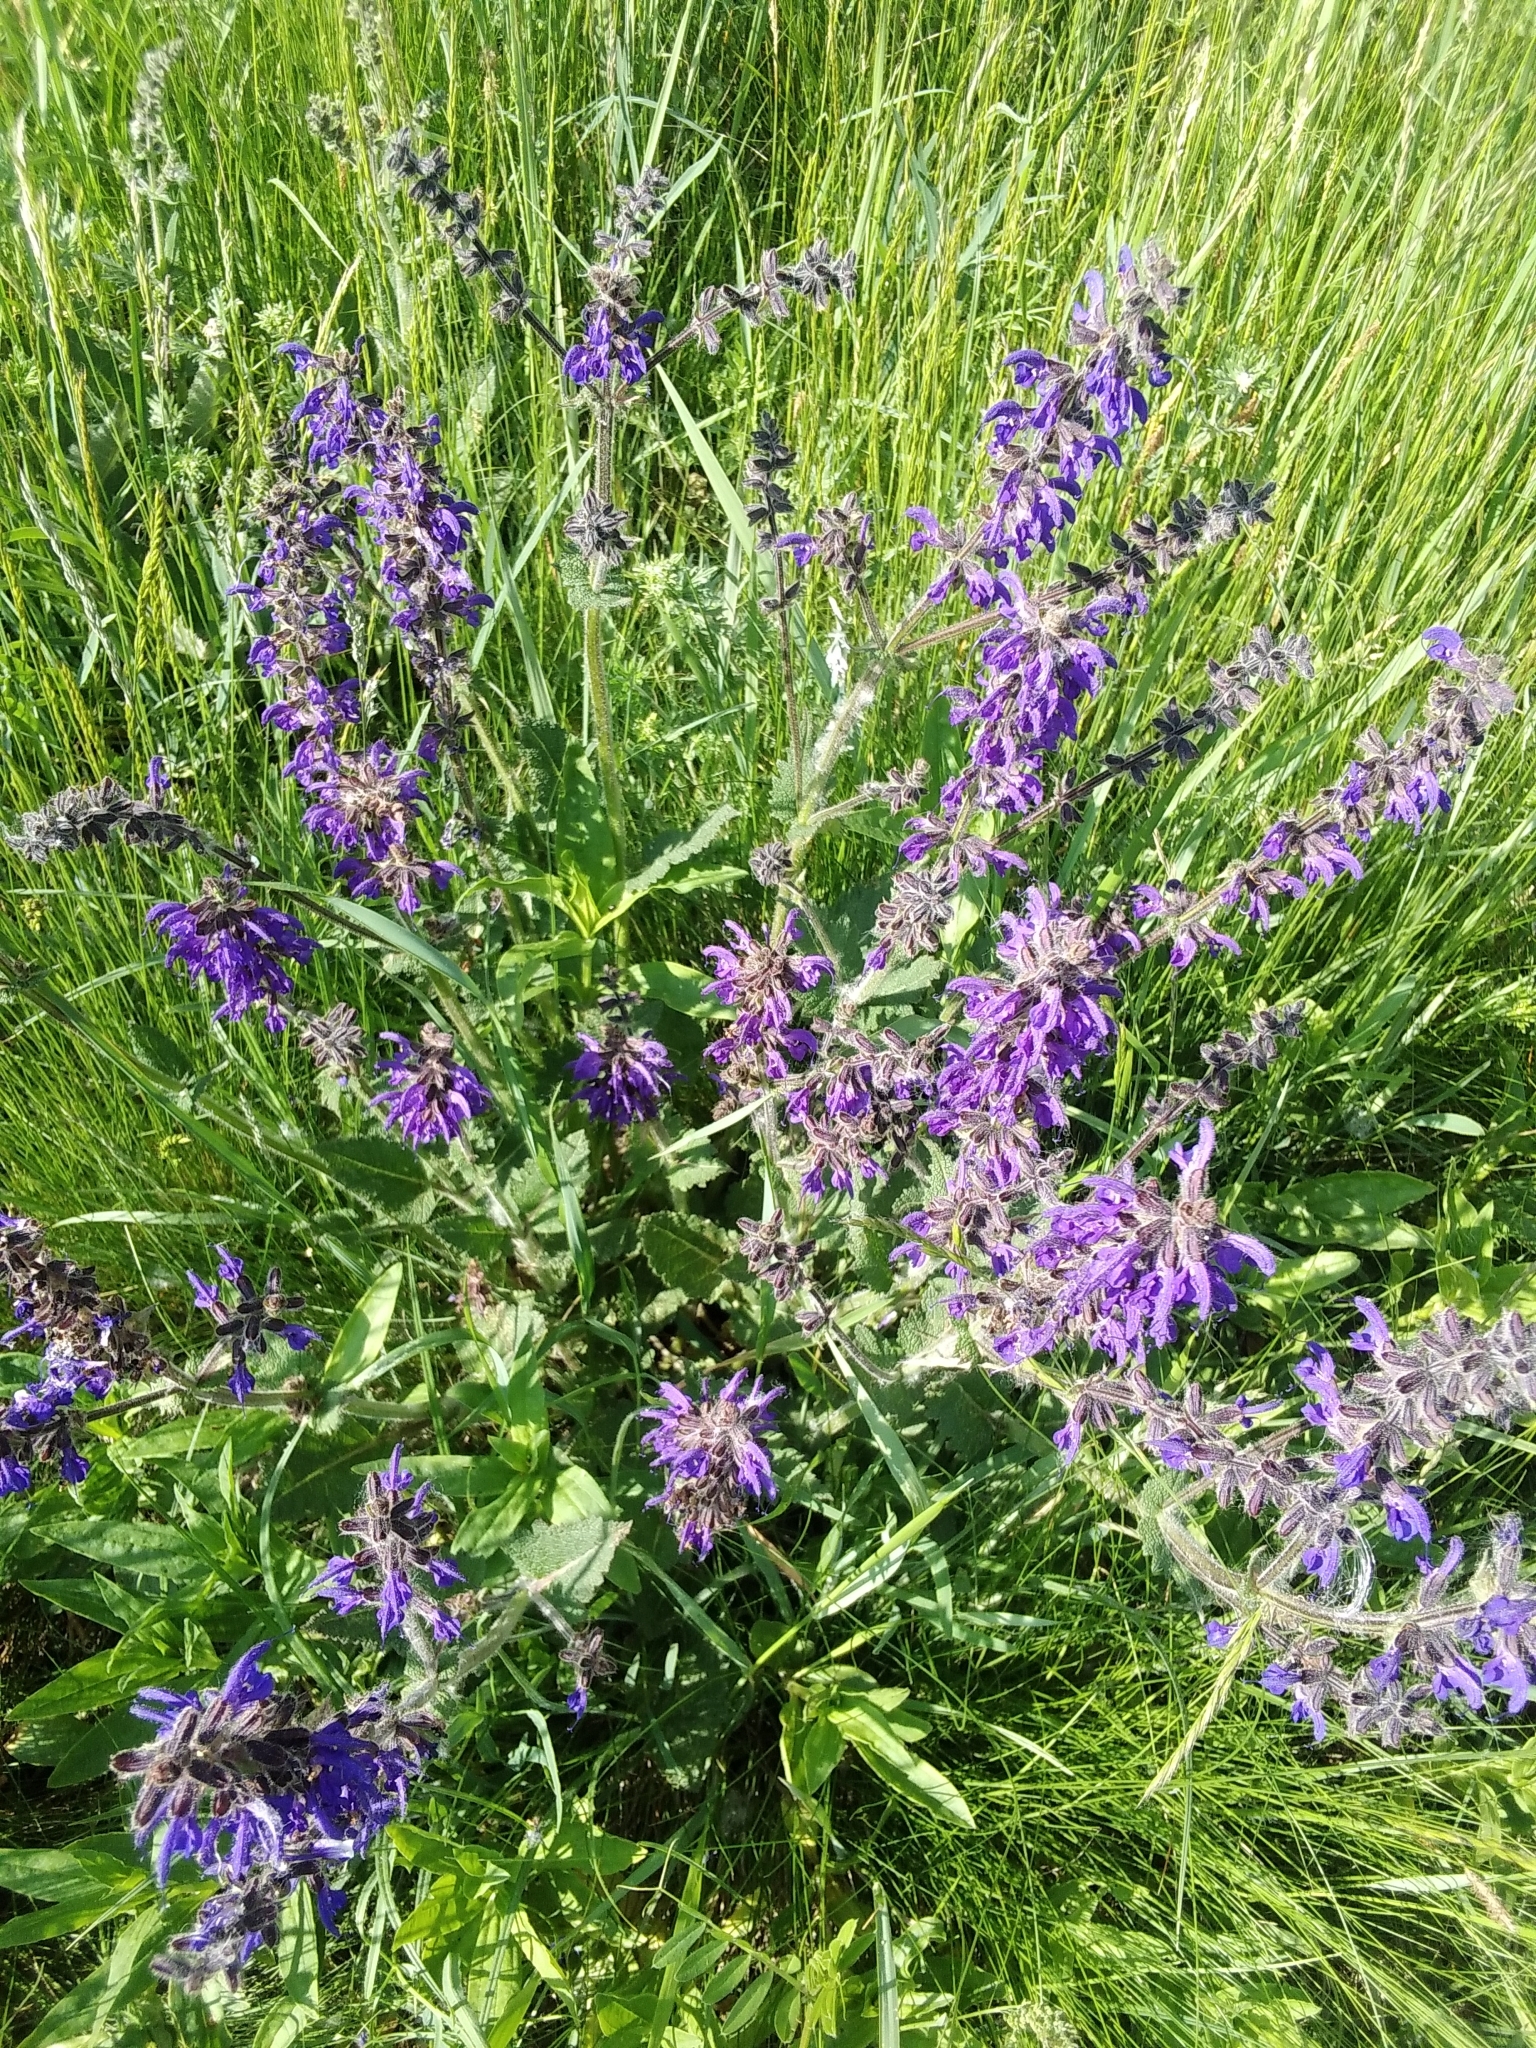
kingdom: Plantae
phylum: Tracheophyta
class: Magnoliopsida
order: Lamiales
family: Lamiaceae
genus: Salvia
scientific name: Salvia pratensis
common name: Meadow sage
